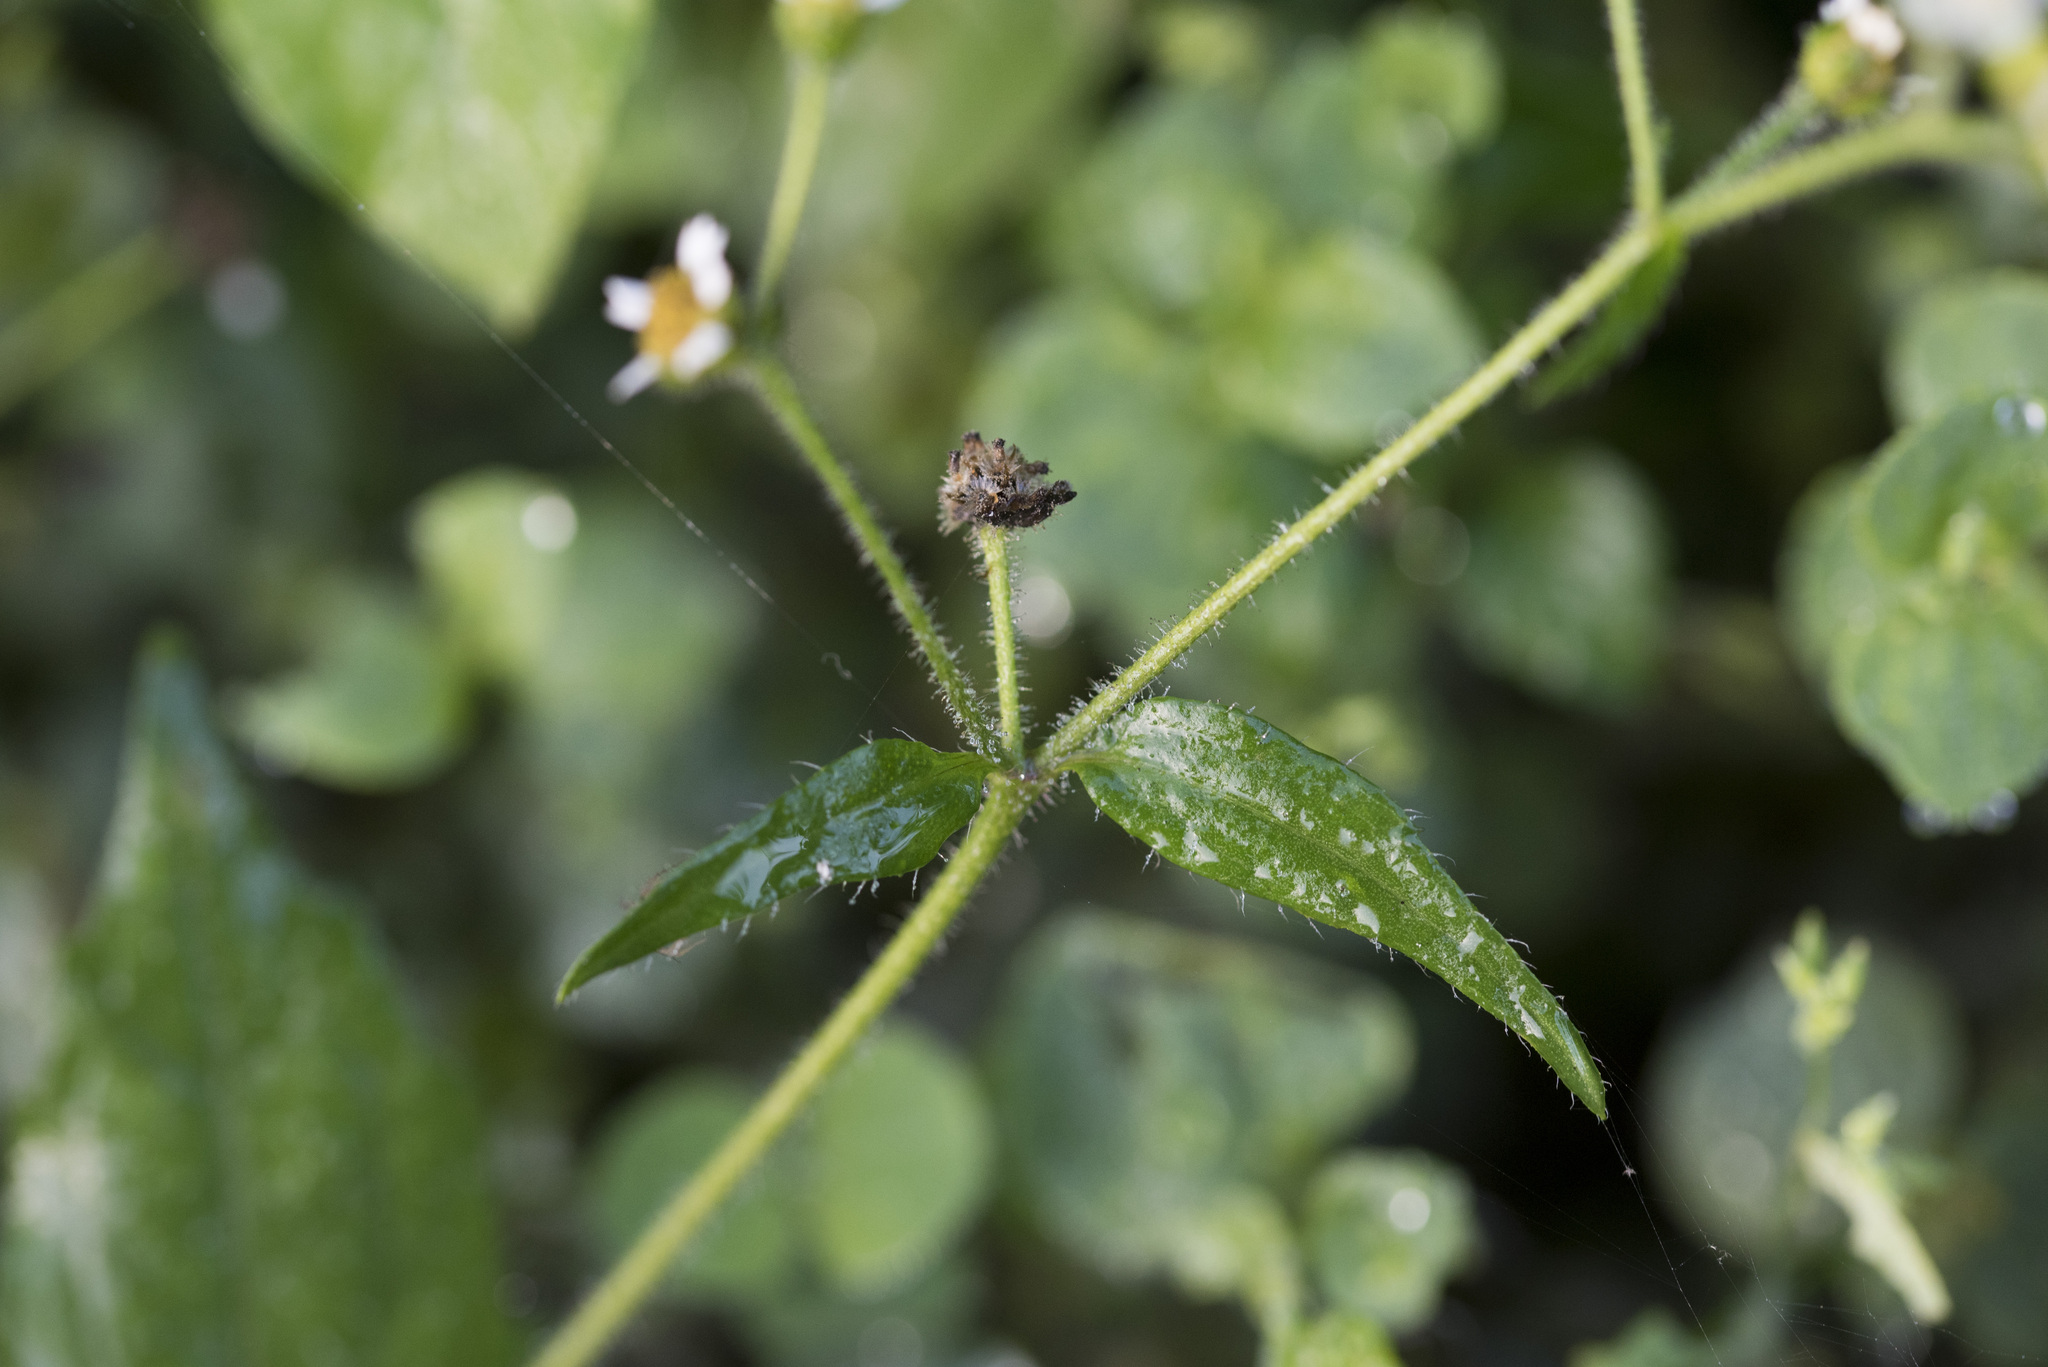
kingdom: Plantae
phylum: Tracheophyta
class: Magnoliopsida
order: Asterales
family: Asteraceae
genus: Galinsoga
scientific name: Galinsoga quadriradiata
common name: Shaggy soldier
